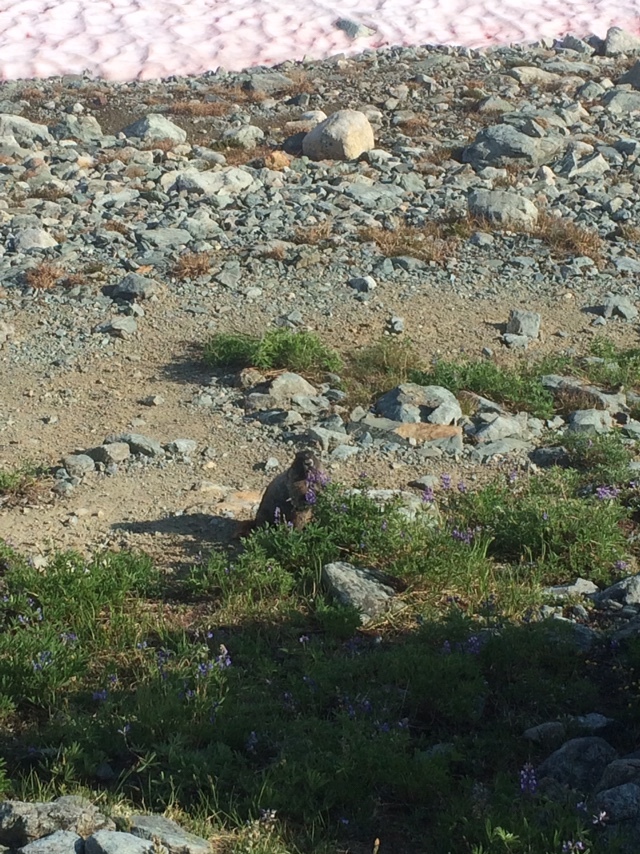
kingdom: Animalia
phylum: Chordata
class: Mammalia
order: Rodentia
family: Sciuridae
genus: Marmota
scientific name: Marmota caligata
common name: Hoary marmot
